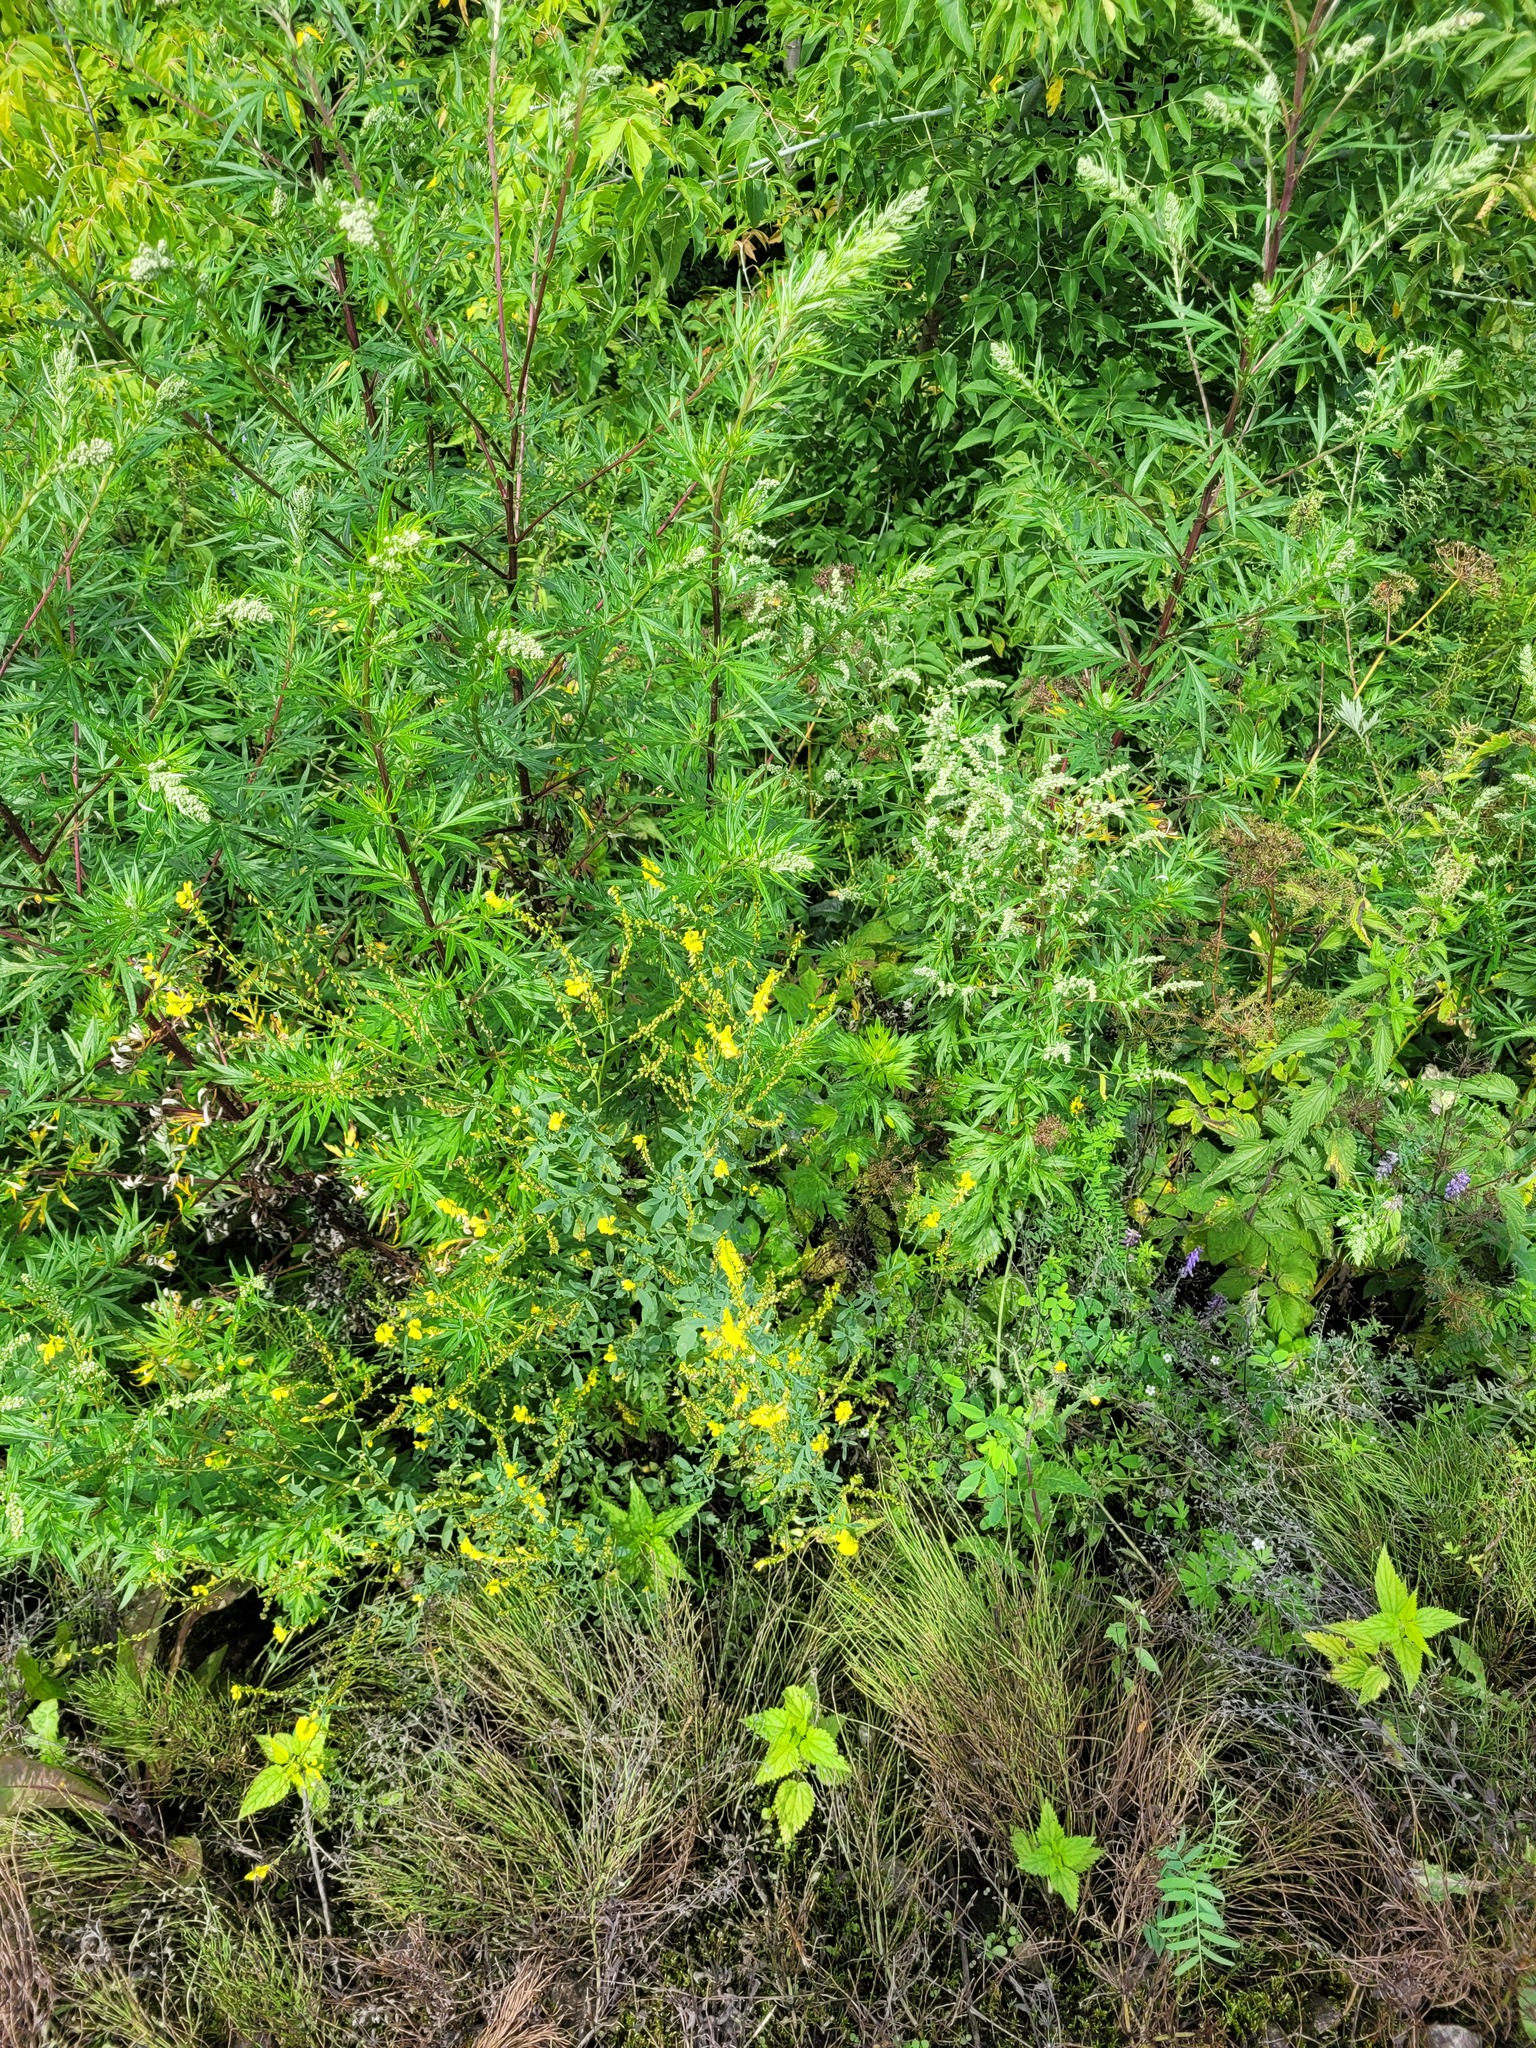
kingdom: Plantae
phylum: Tracheophyta
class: Magnoliopsida
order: Fabales
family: Fabaceae
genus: Melilotus
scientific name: Melilotus officinalis
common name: Sweetclover
